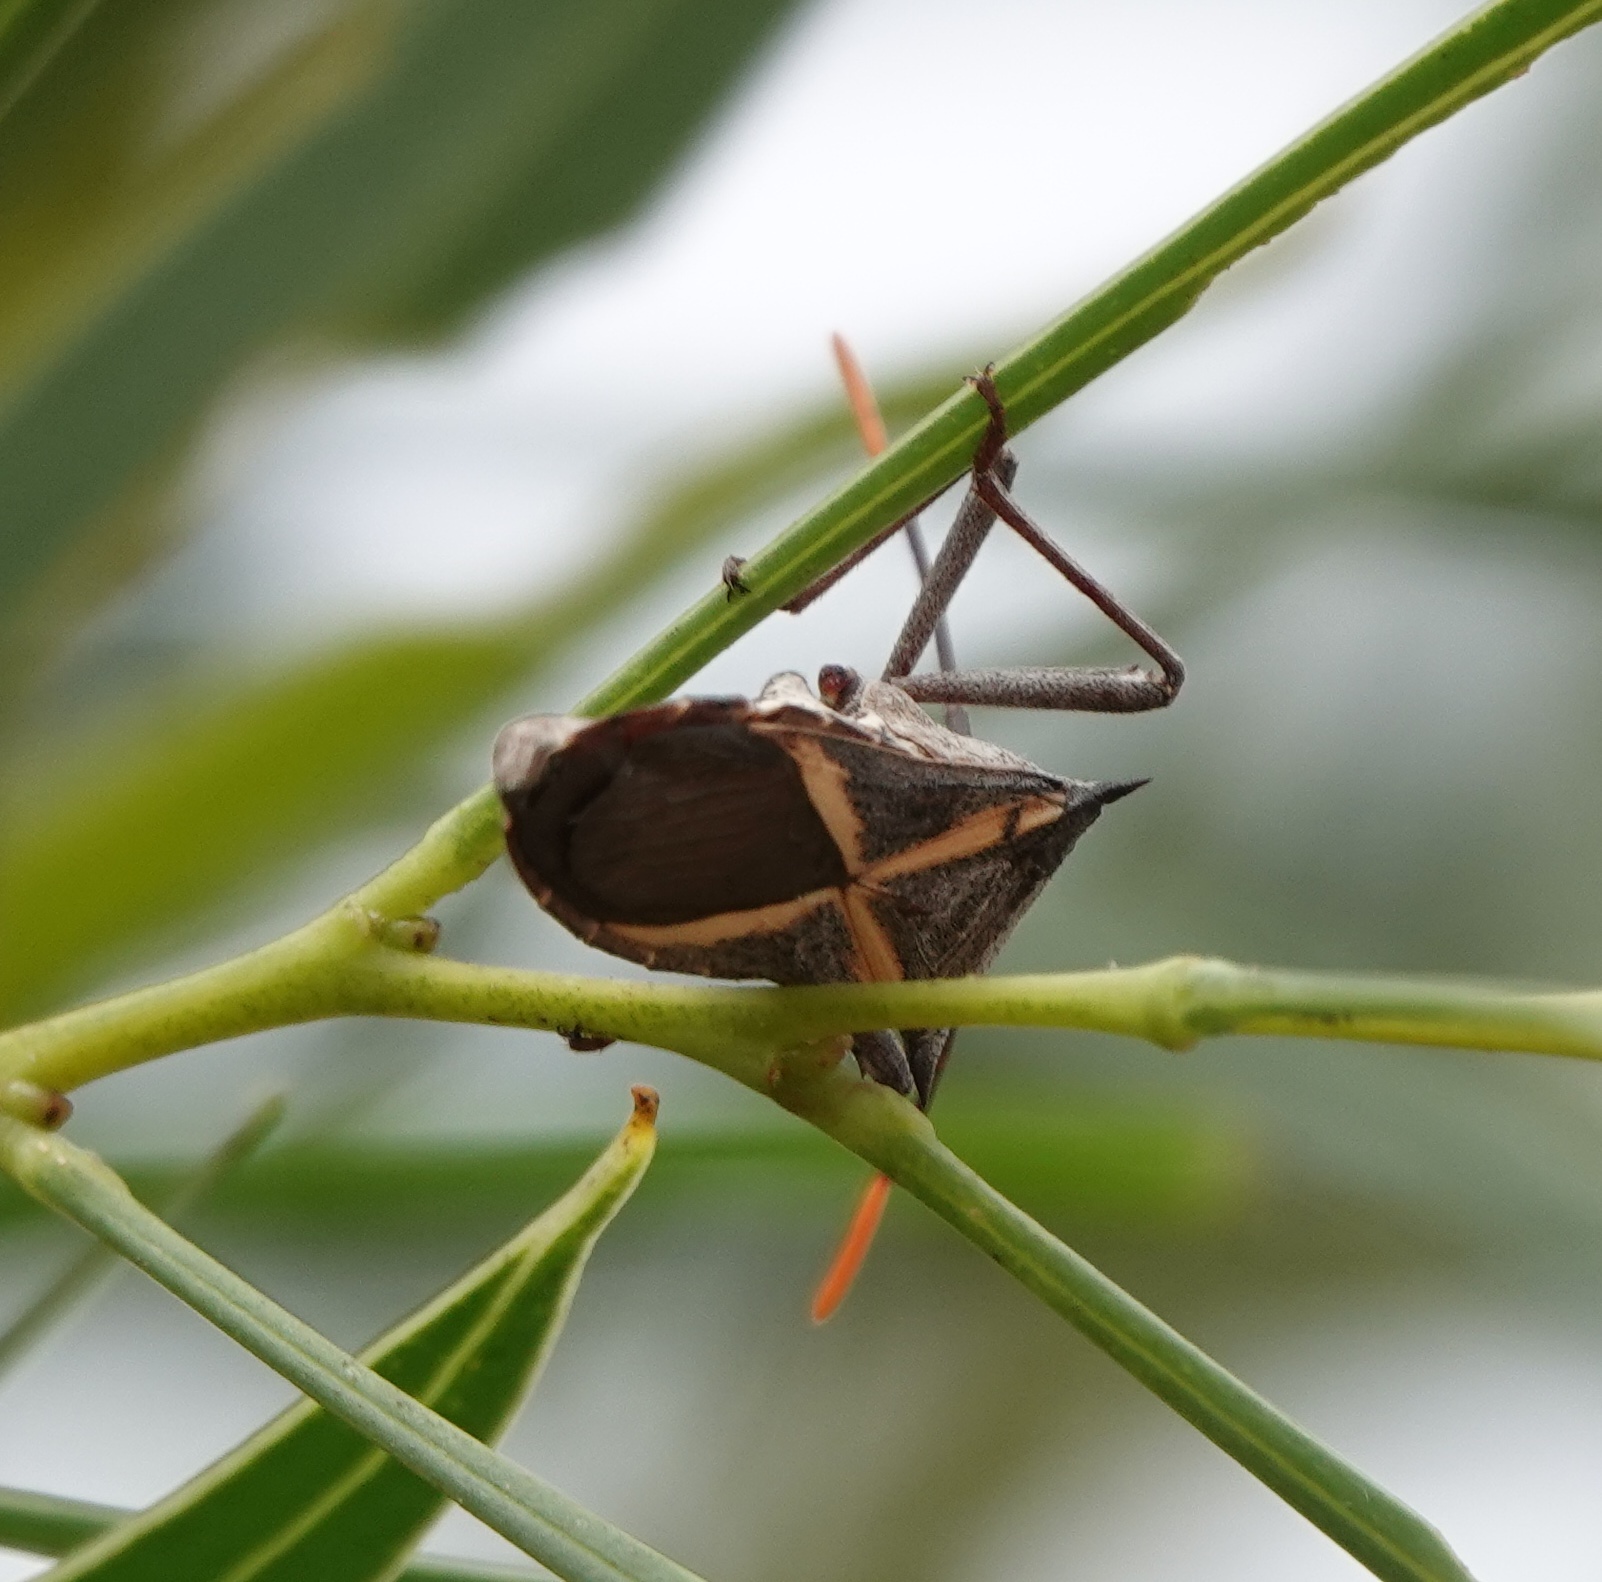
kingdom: Animalia
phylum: Arthropoda
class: Insecta
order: Hemiptera
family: Coreidae
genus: Mictis
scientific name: Mictis profana
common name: Crusader bug
